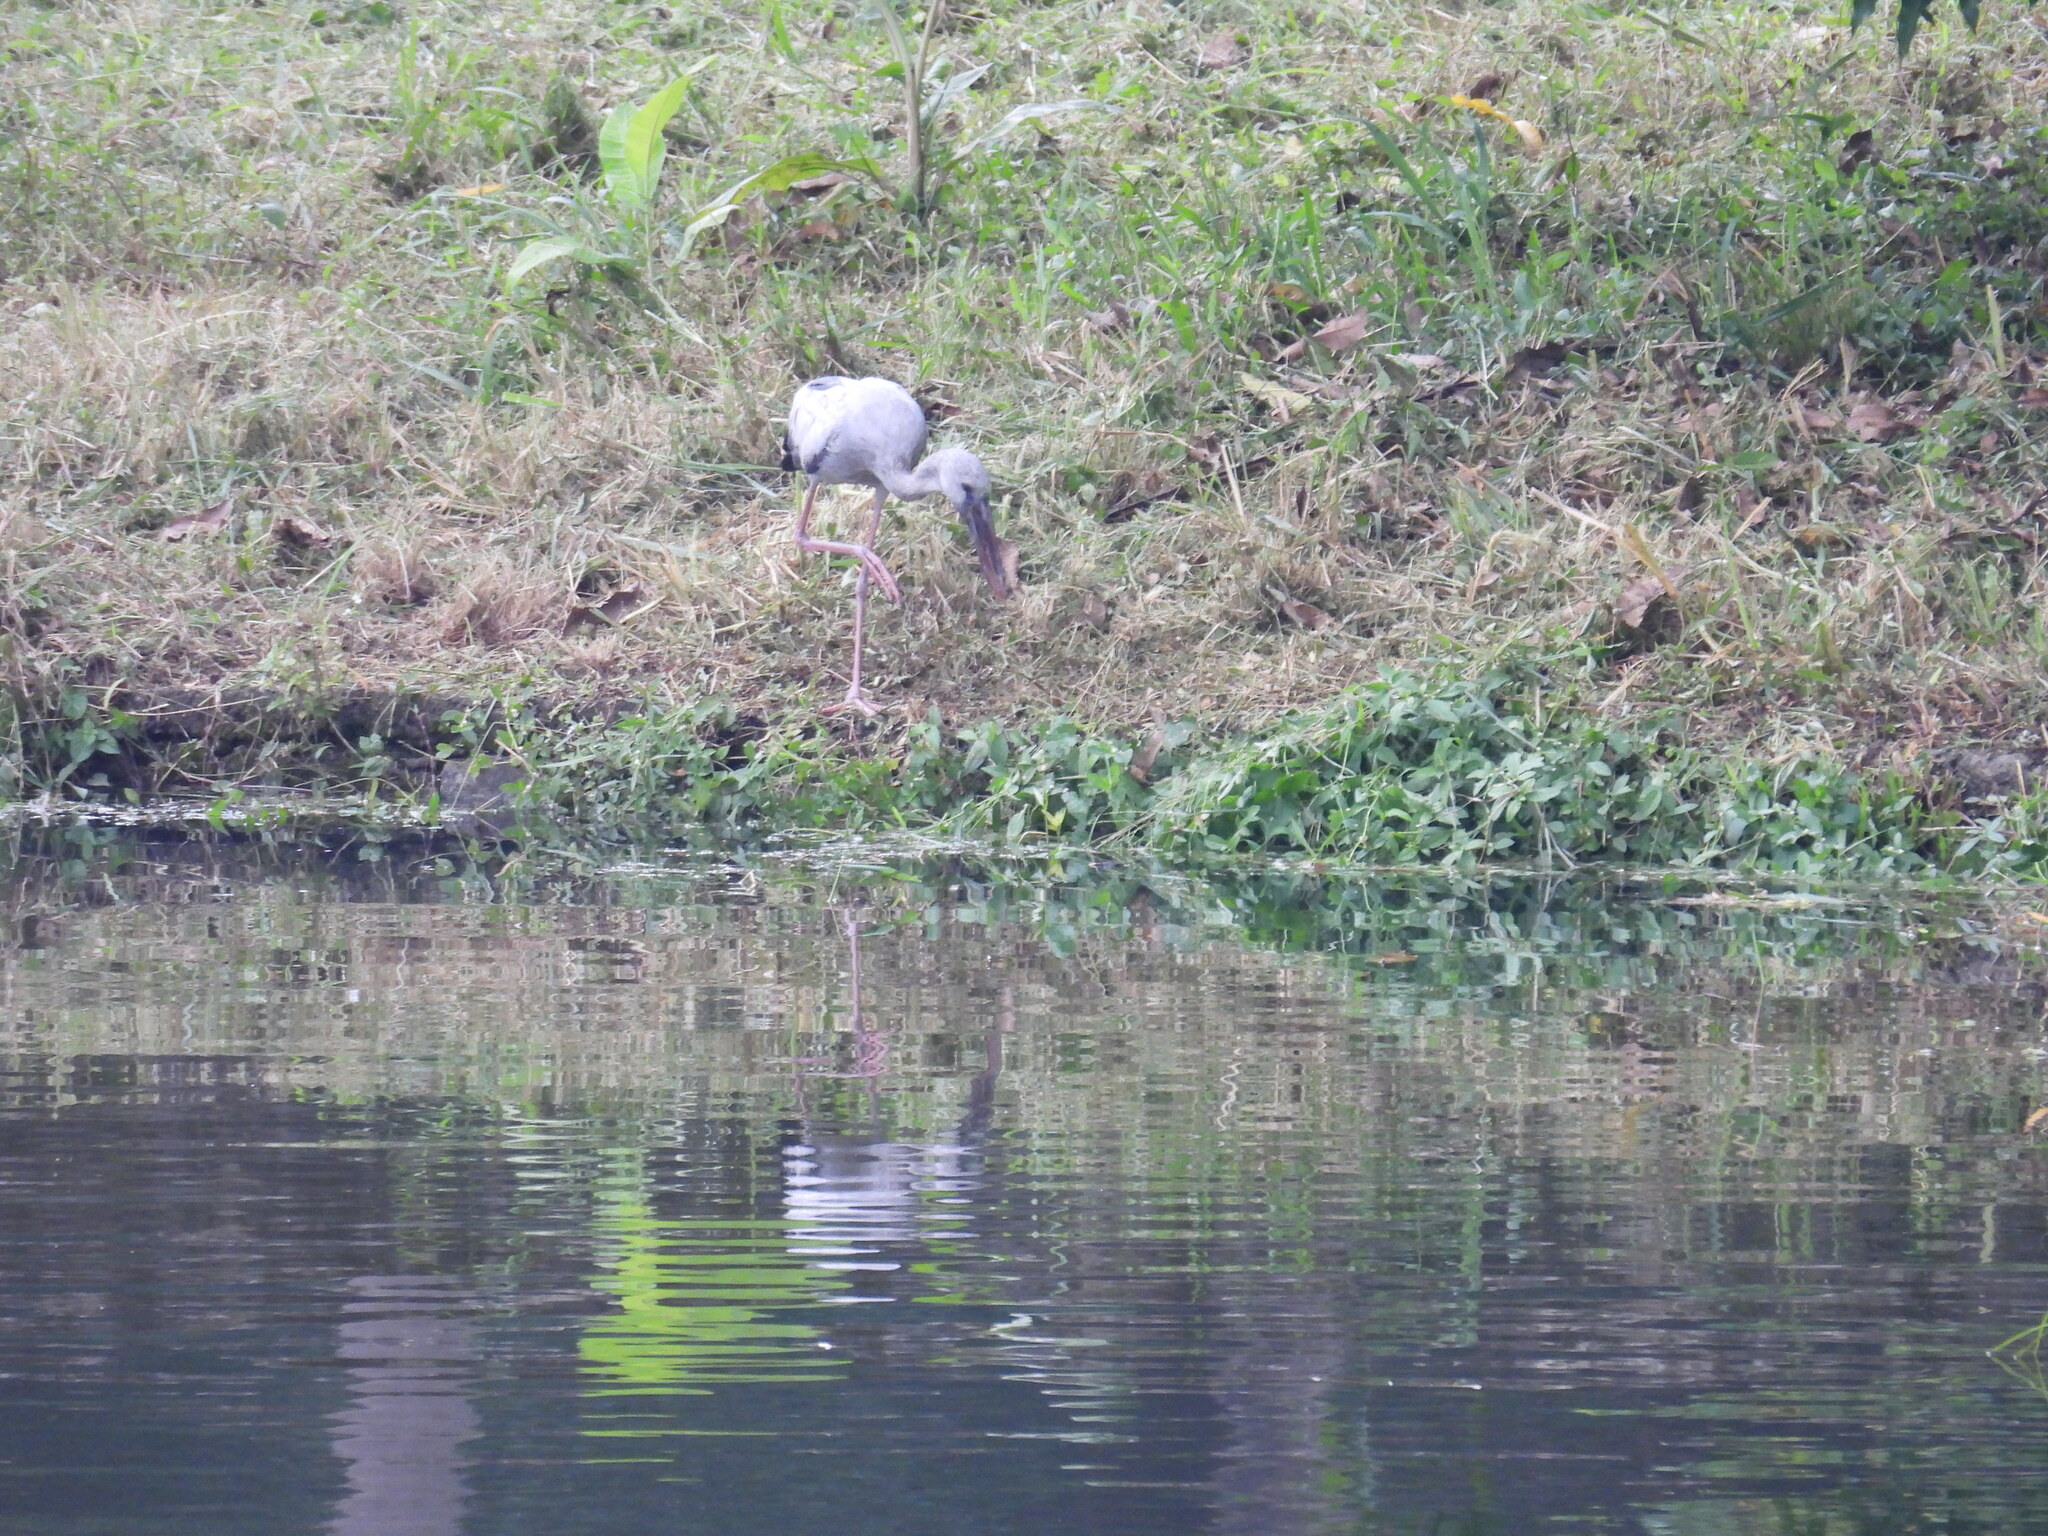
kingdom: Animalia
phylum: Chordata
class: Aves
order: Ciconiiformes
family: Ciconiidae
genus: Anastomus
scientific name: Anastomus oscitans
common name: Asian openbill
